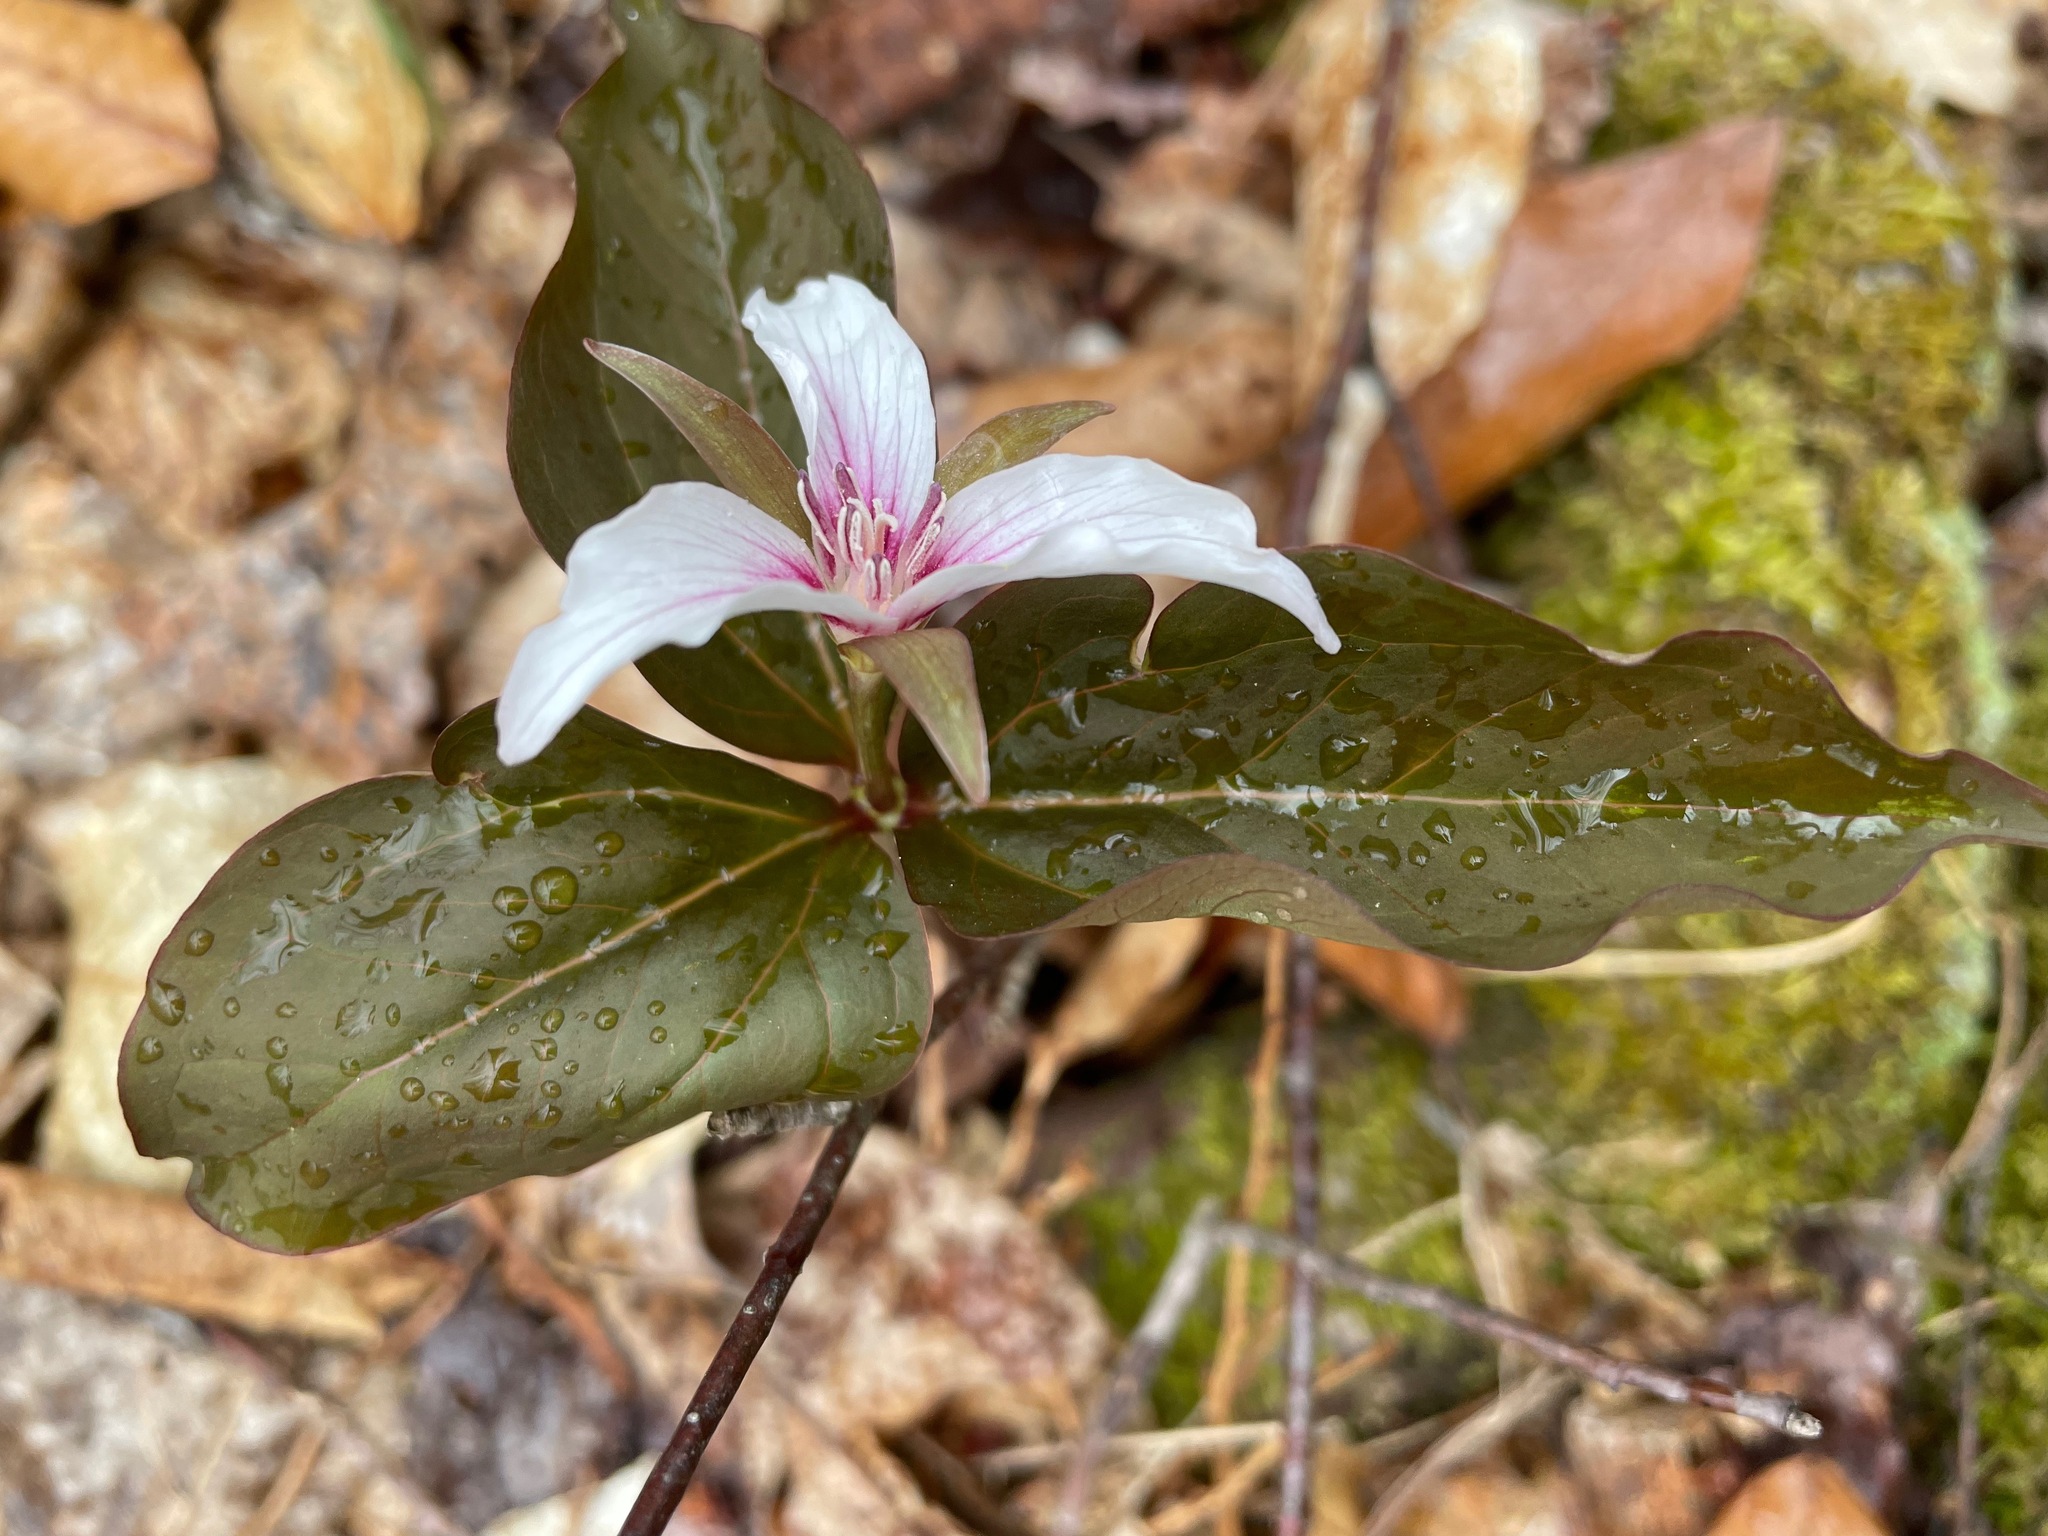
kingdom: Plantae
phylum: Tracheophyta
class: Liliopsida
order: Liliales
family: Melanthiaceae
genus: Trillium
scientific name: Trillium undulatum
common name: Paint trillium
